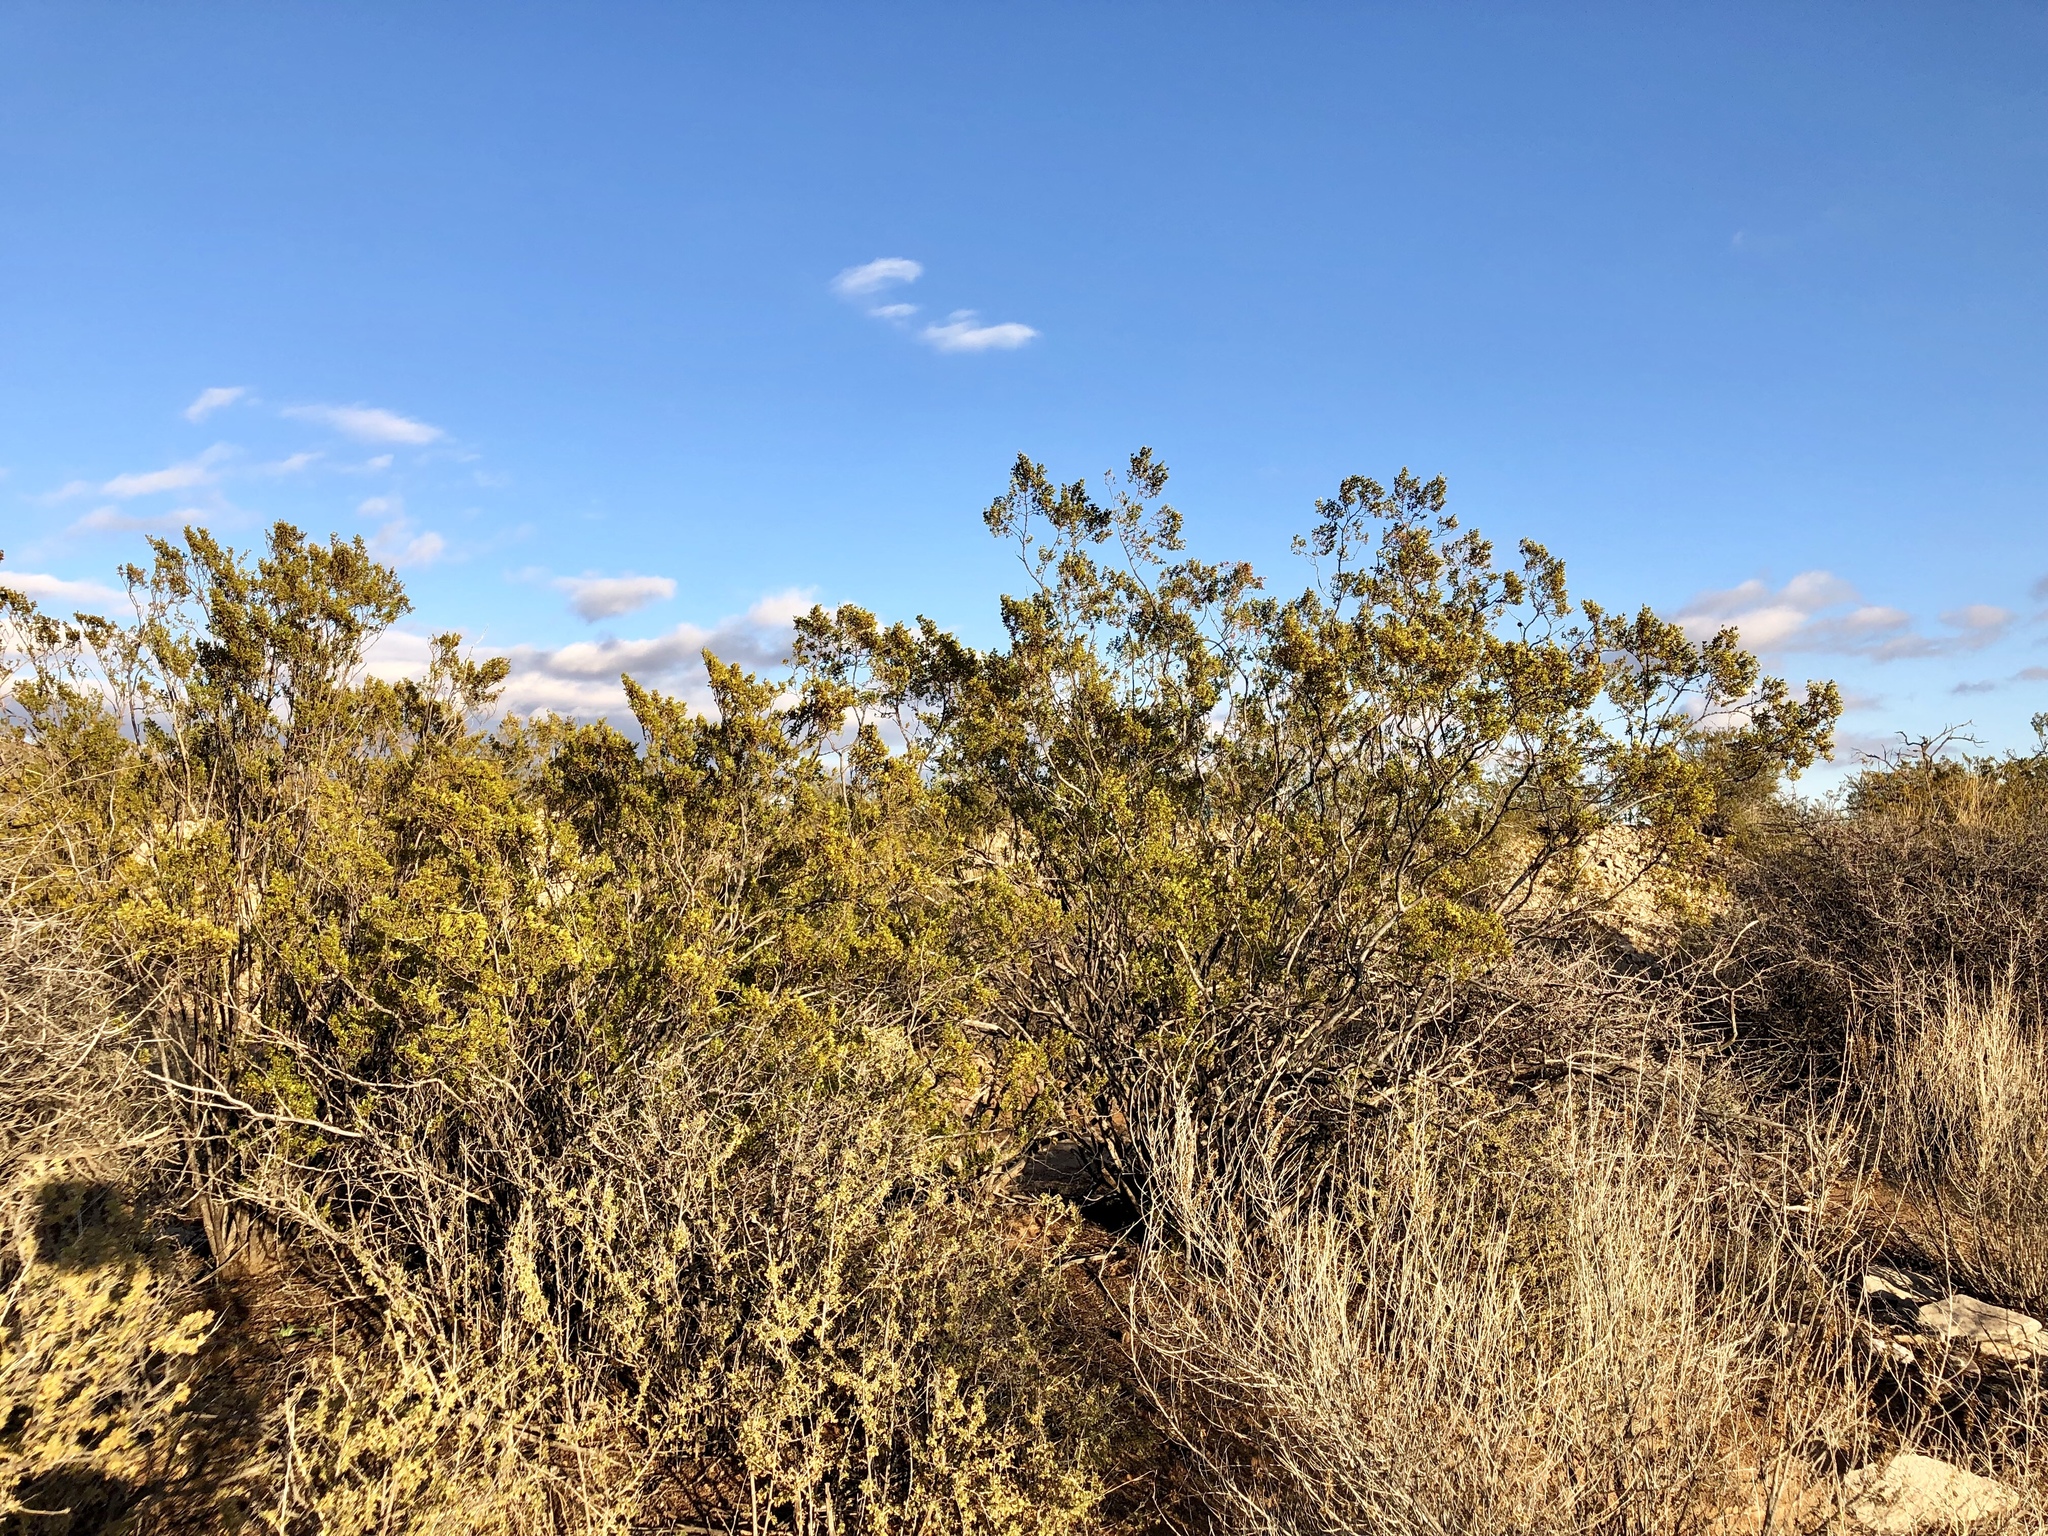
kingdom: Plantae
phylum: Tracheophyta
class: Magnoliopsida
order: Zygophyllales
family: Zygophyllaceae
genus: Larrea
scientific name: Larrea tridentata
